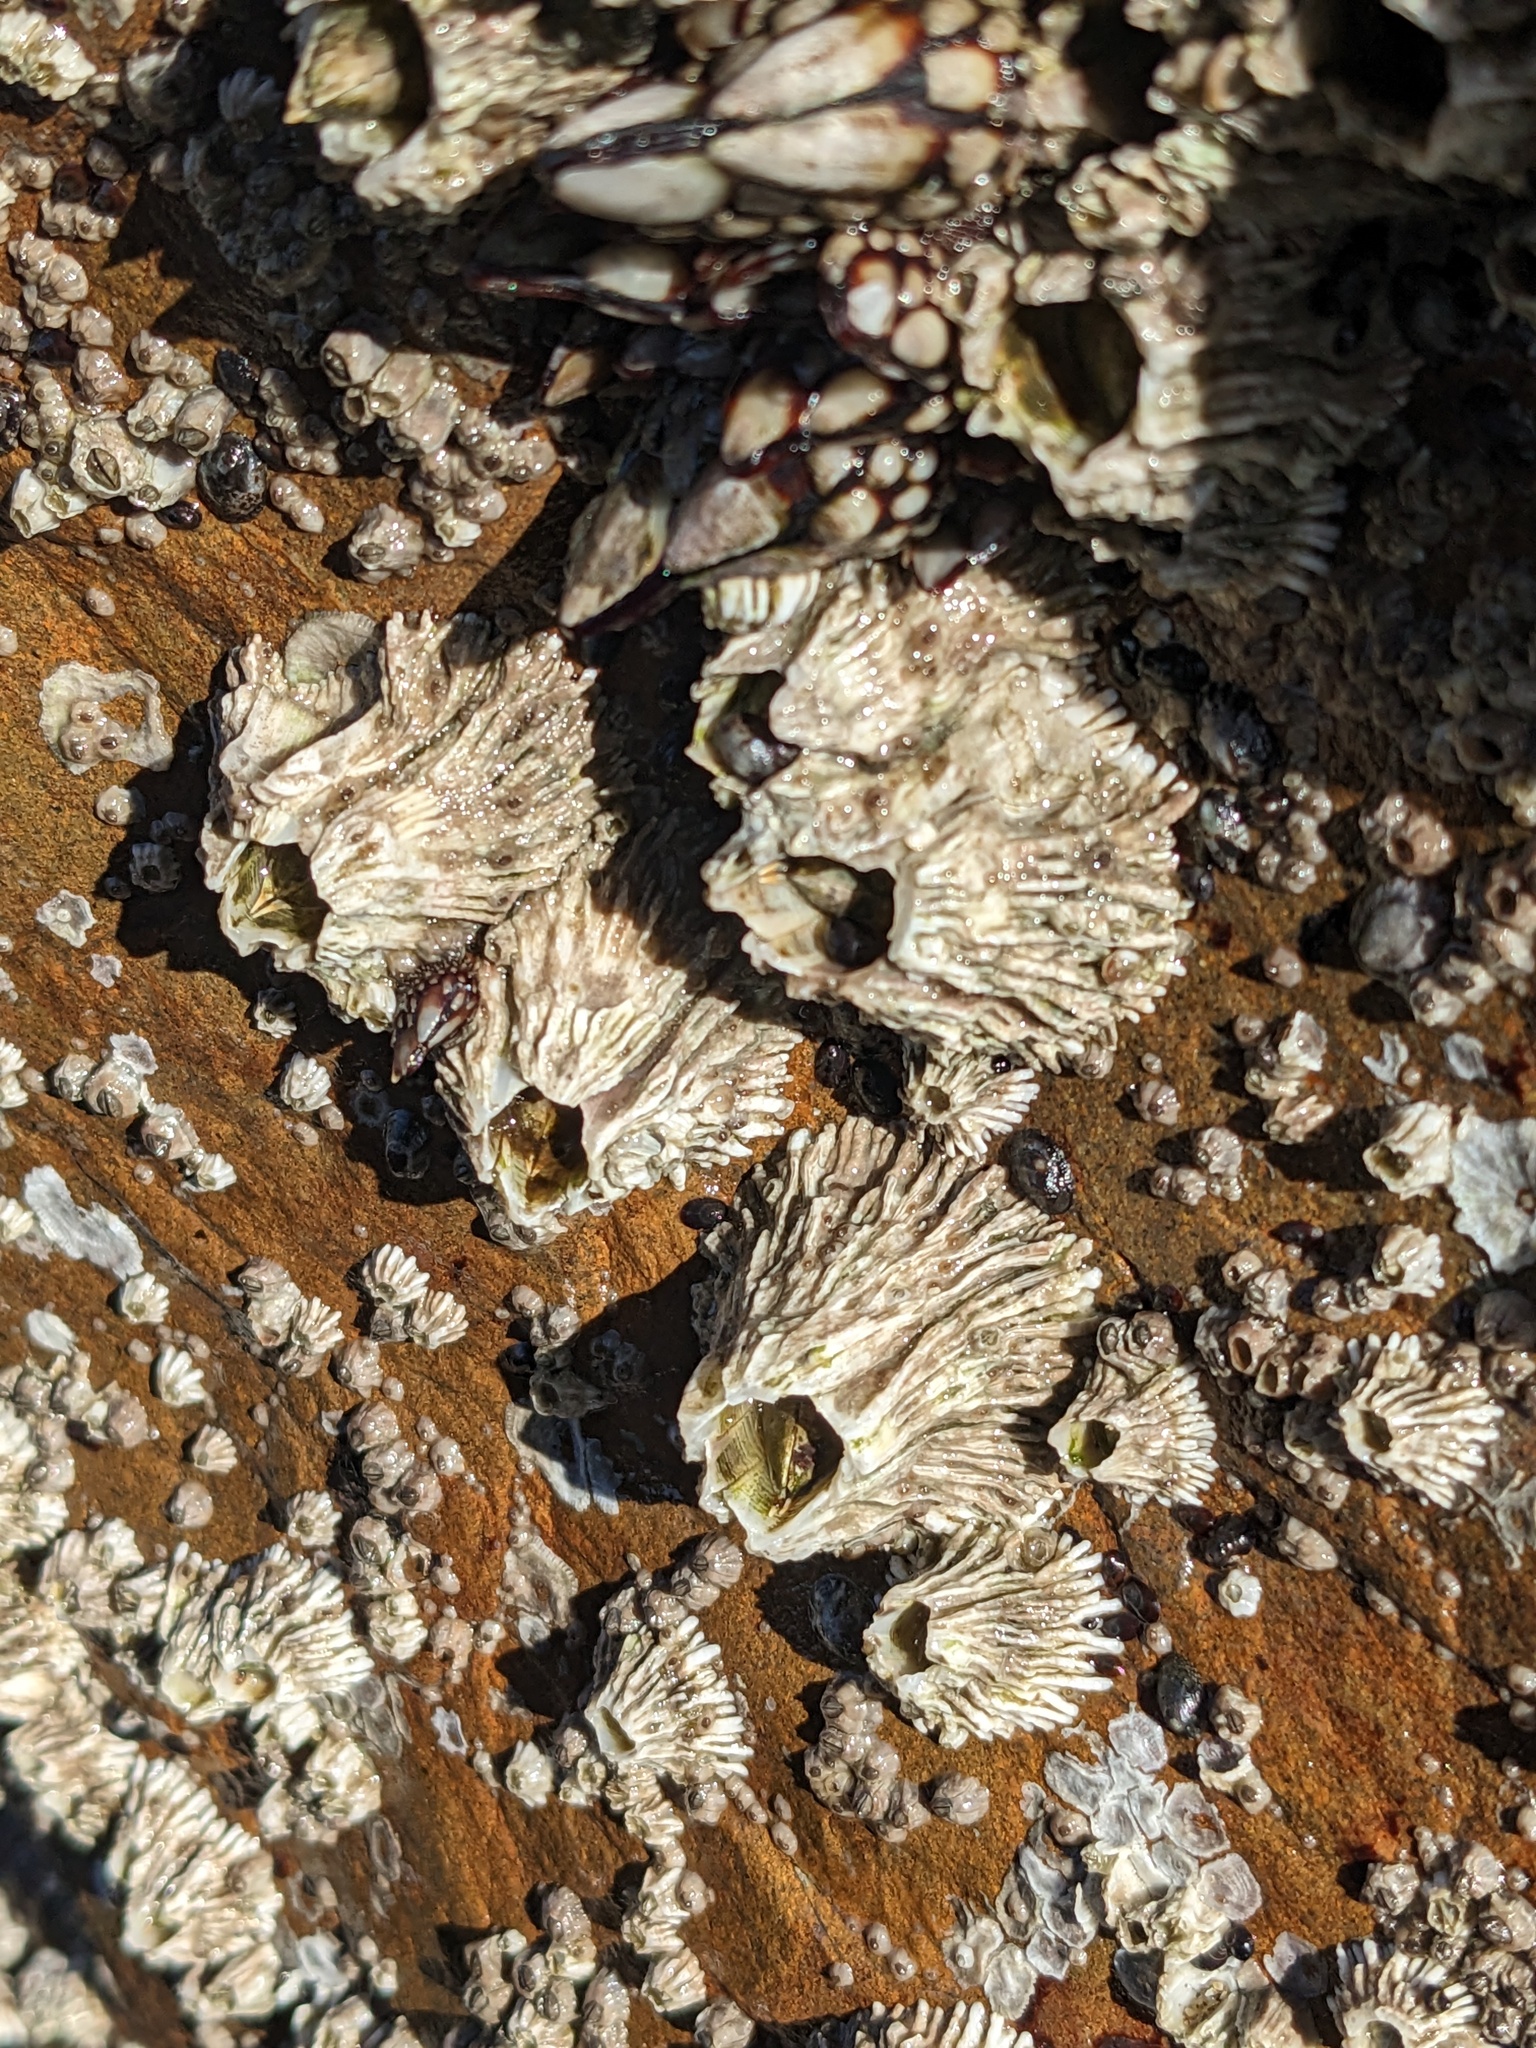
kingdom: Animalia
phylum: Arthropoda
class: Maxillopoda
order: Sessilia
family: Archaeobalanidae
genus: Semibalanus
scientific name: Semibalanus cariosus
